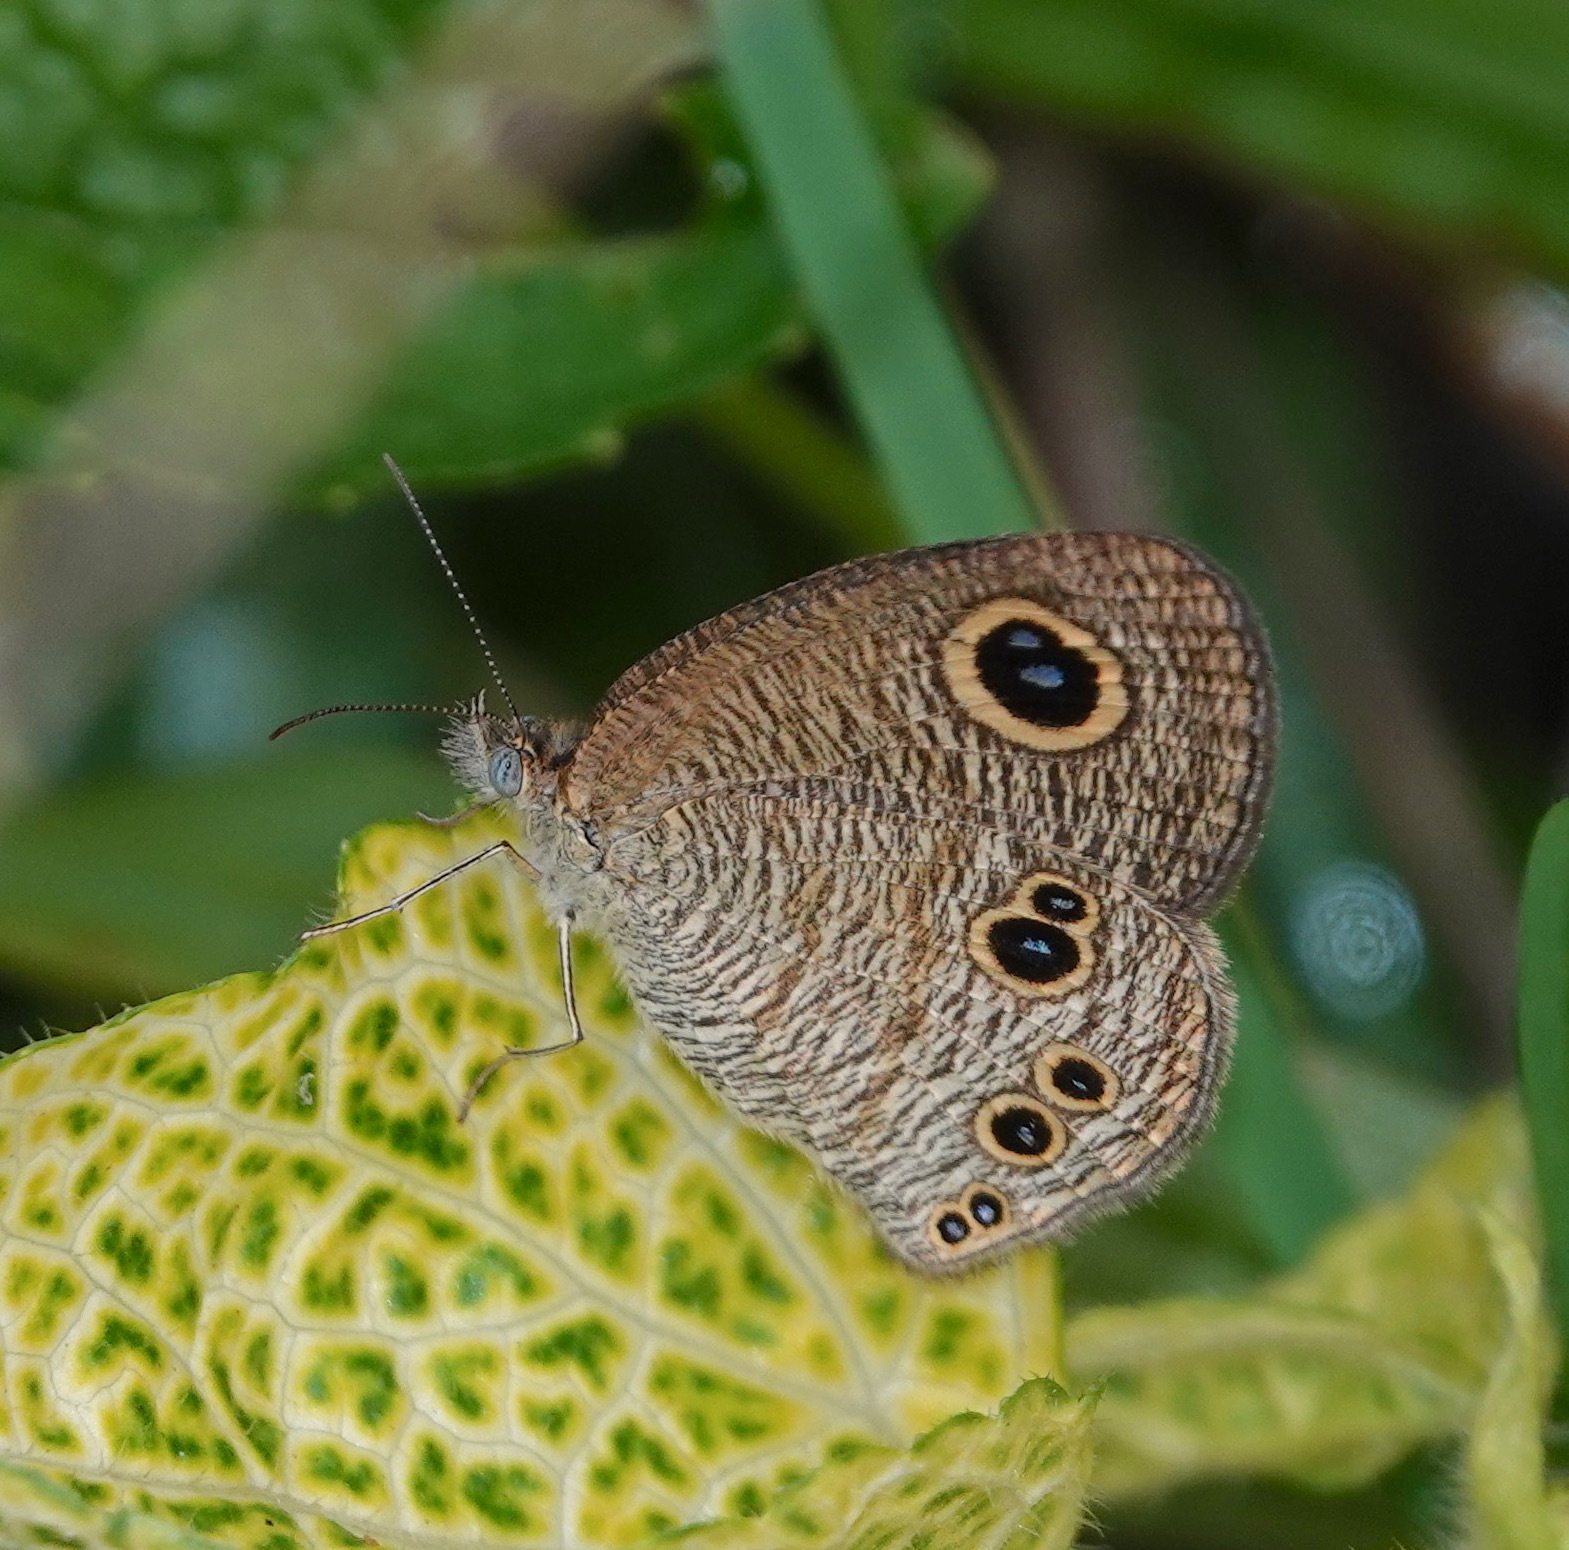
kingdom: Animalia
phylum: Arthropoda
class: Insecta
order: Lepidoptera
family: Nymphalidae
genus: Ypthima
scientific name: Ypthima philomela
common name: Baby fivering
